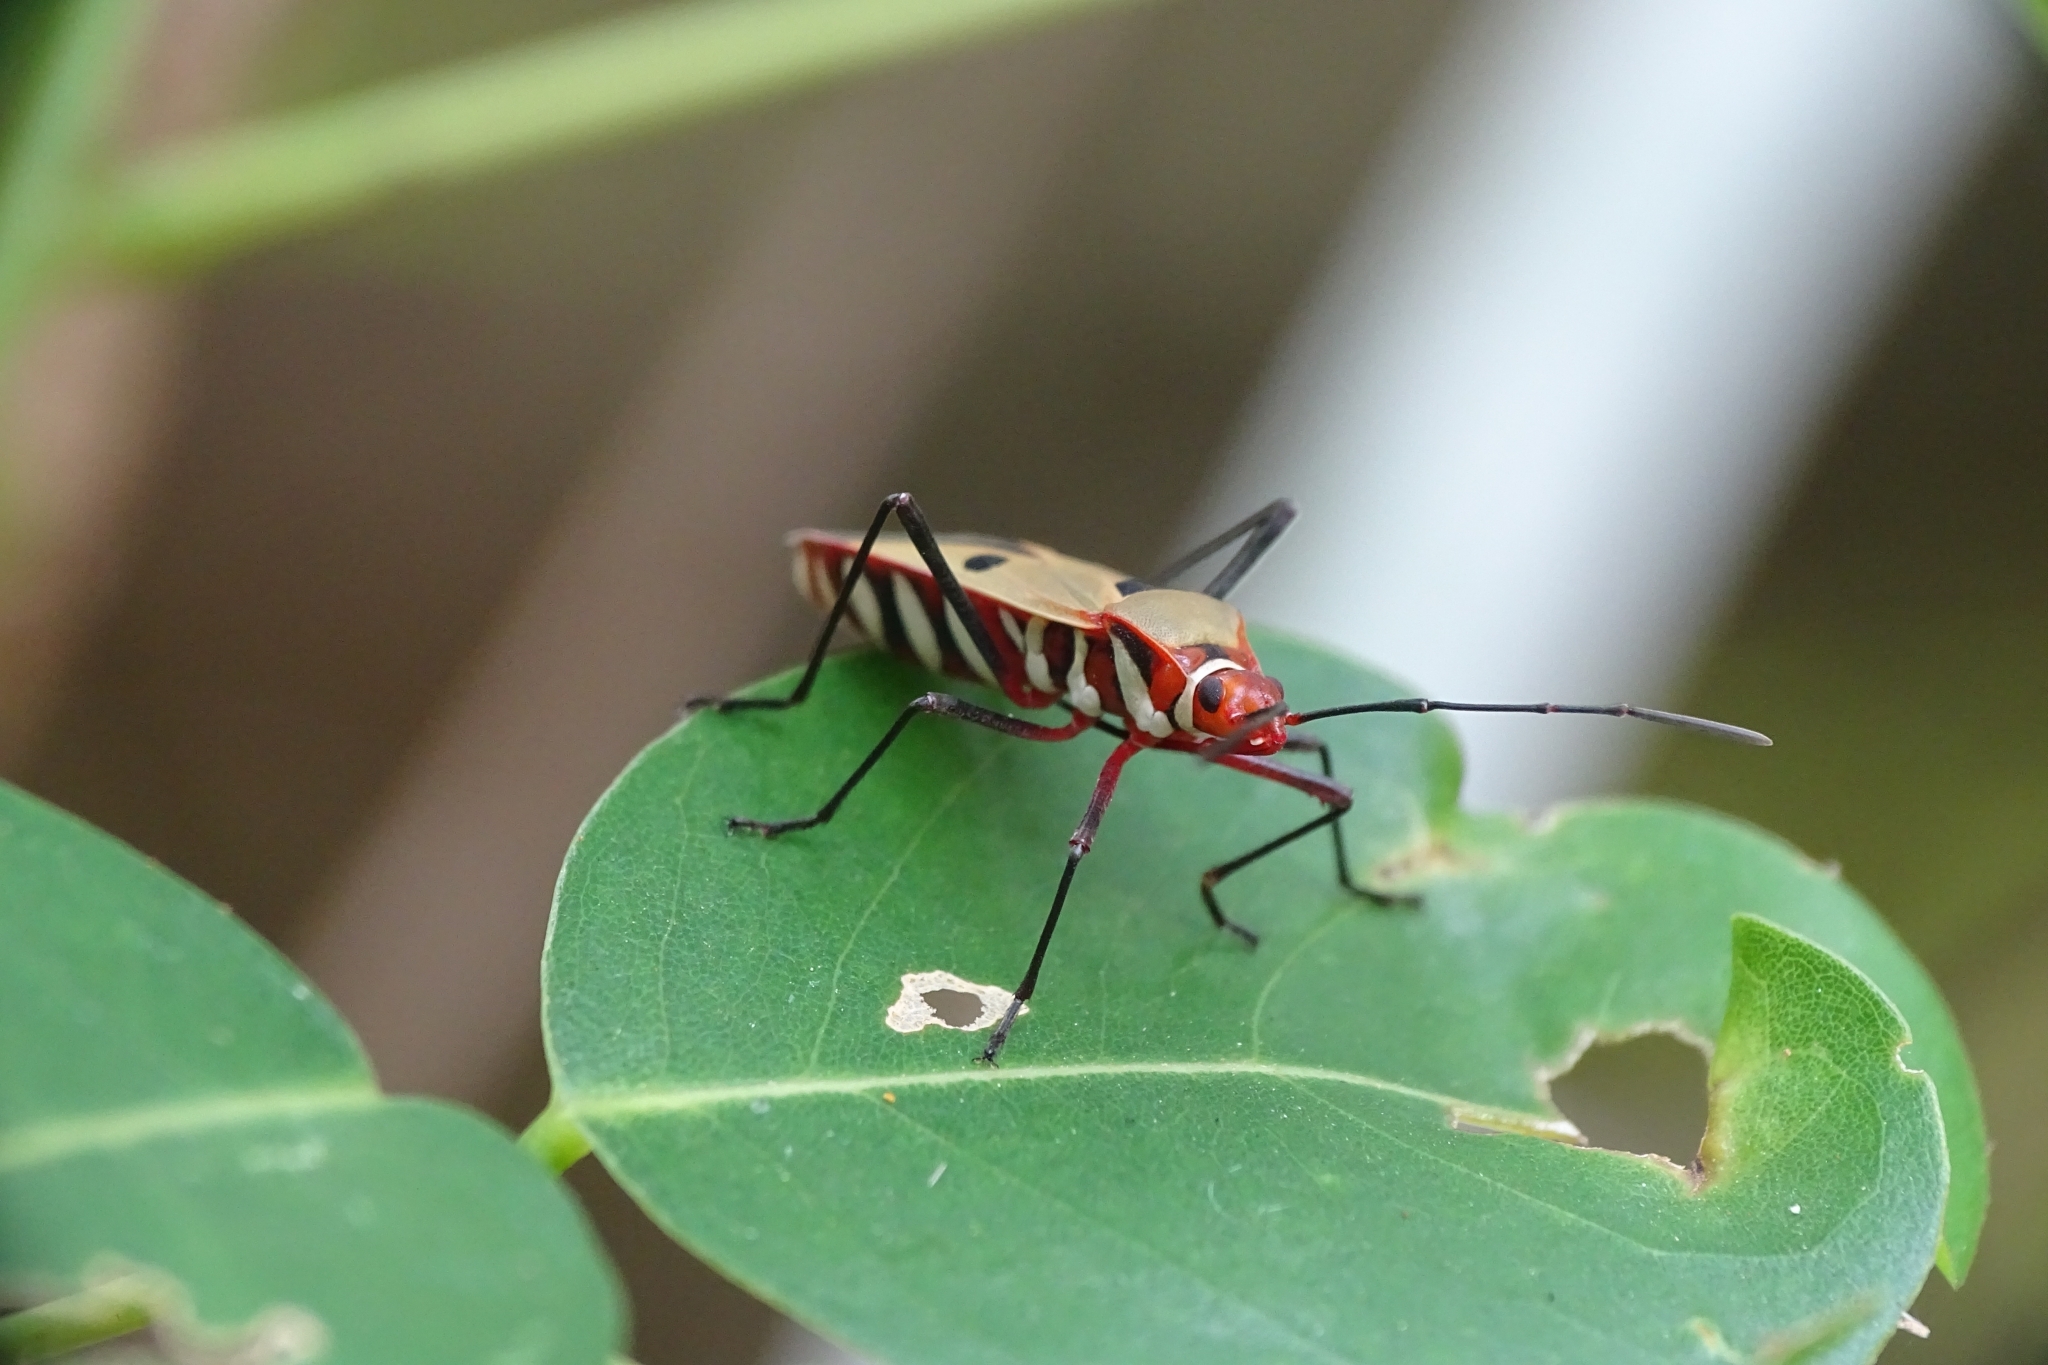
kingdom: Animalia
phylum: Arthropoda
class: Insecta
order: Hemiptera
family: Pyrrhocoridae
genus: Dysdercus
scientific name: Dysdercus
